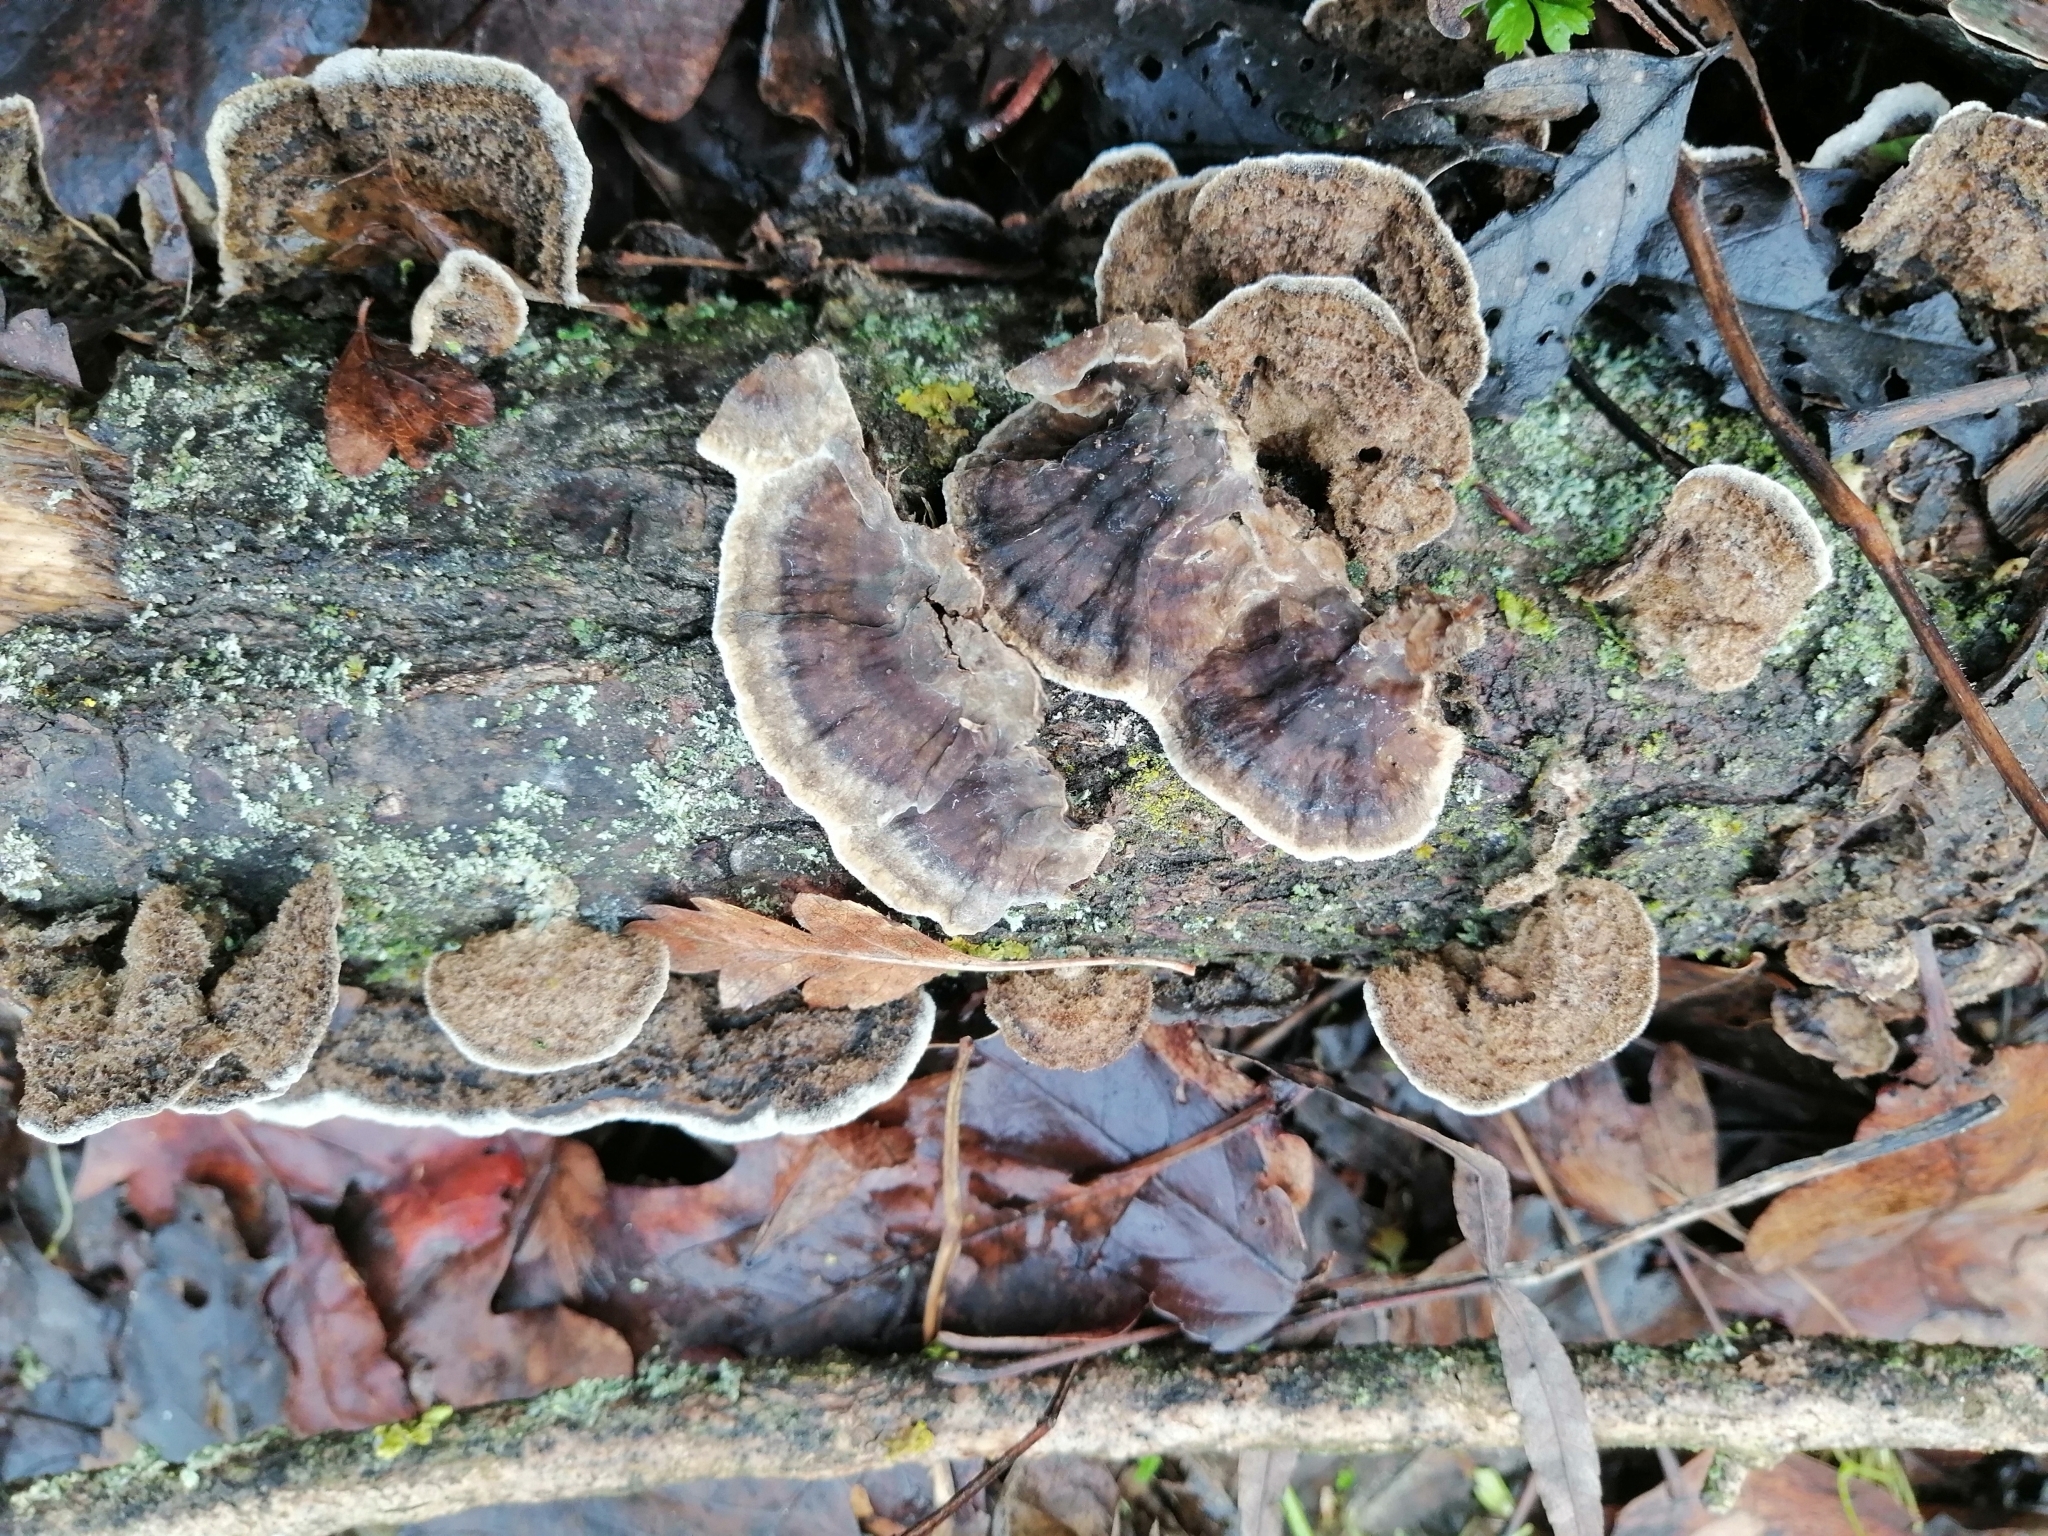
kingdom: Fungi
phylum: Basidiomycota
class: Agaricomycetes
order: Polyporales
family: Phanerochaetaceae
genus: Porostereum
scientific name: Porostereum spadiceum
